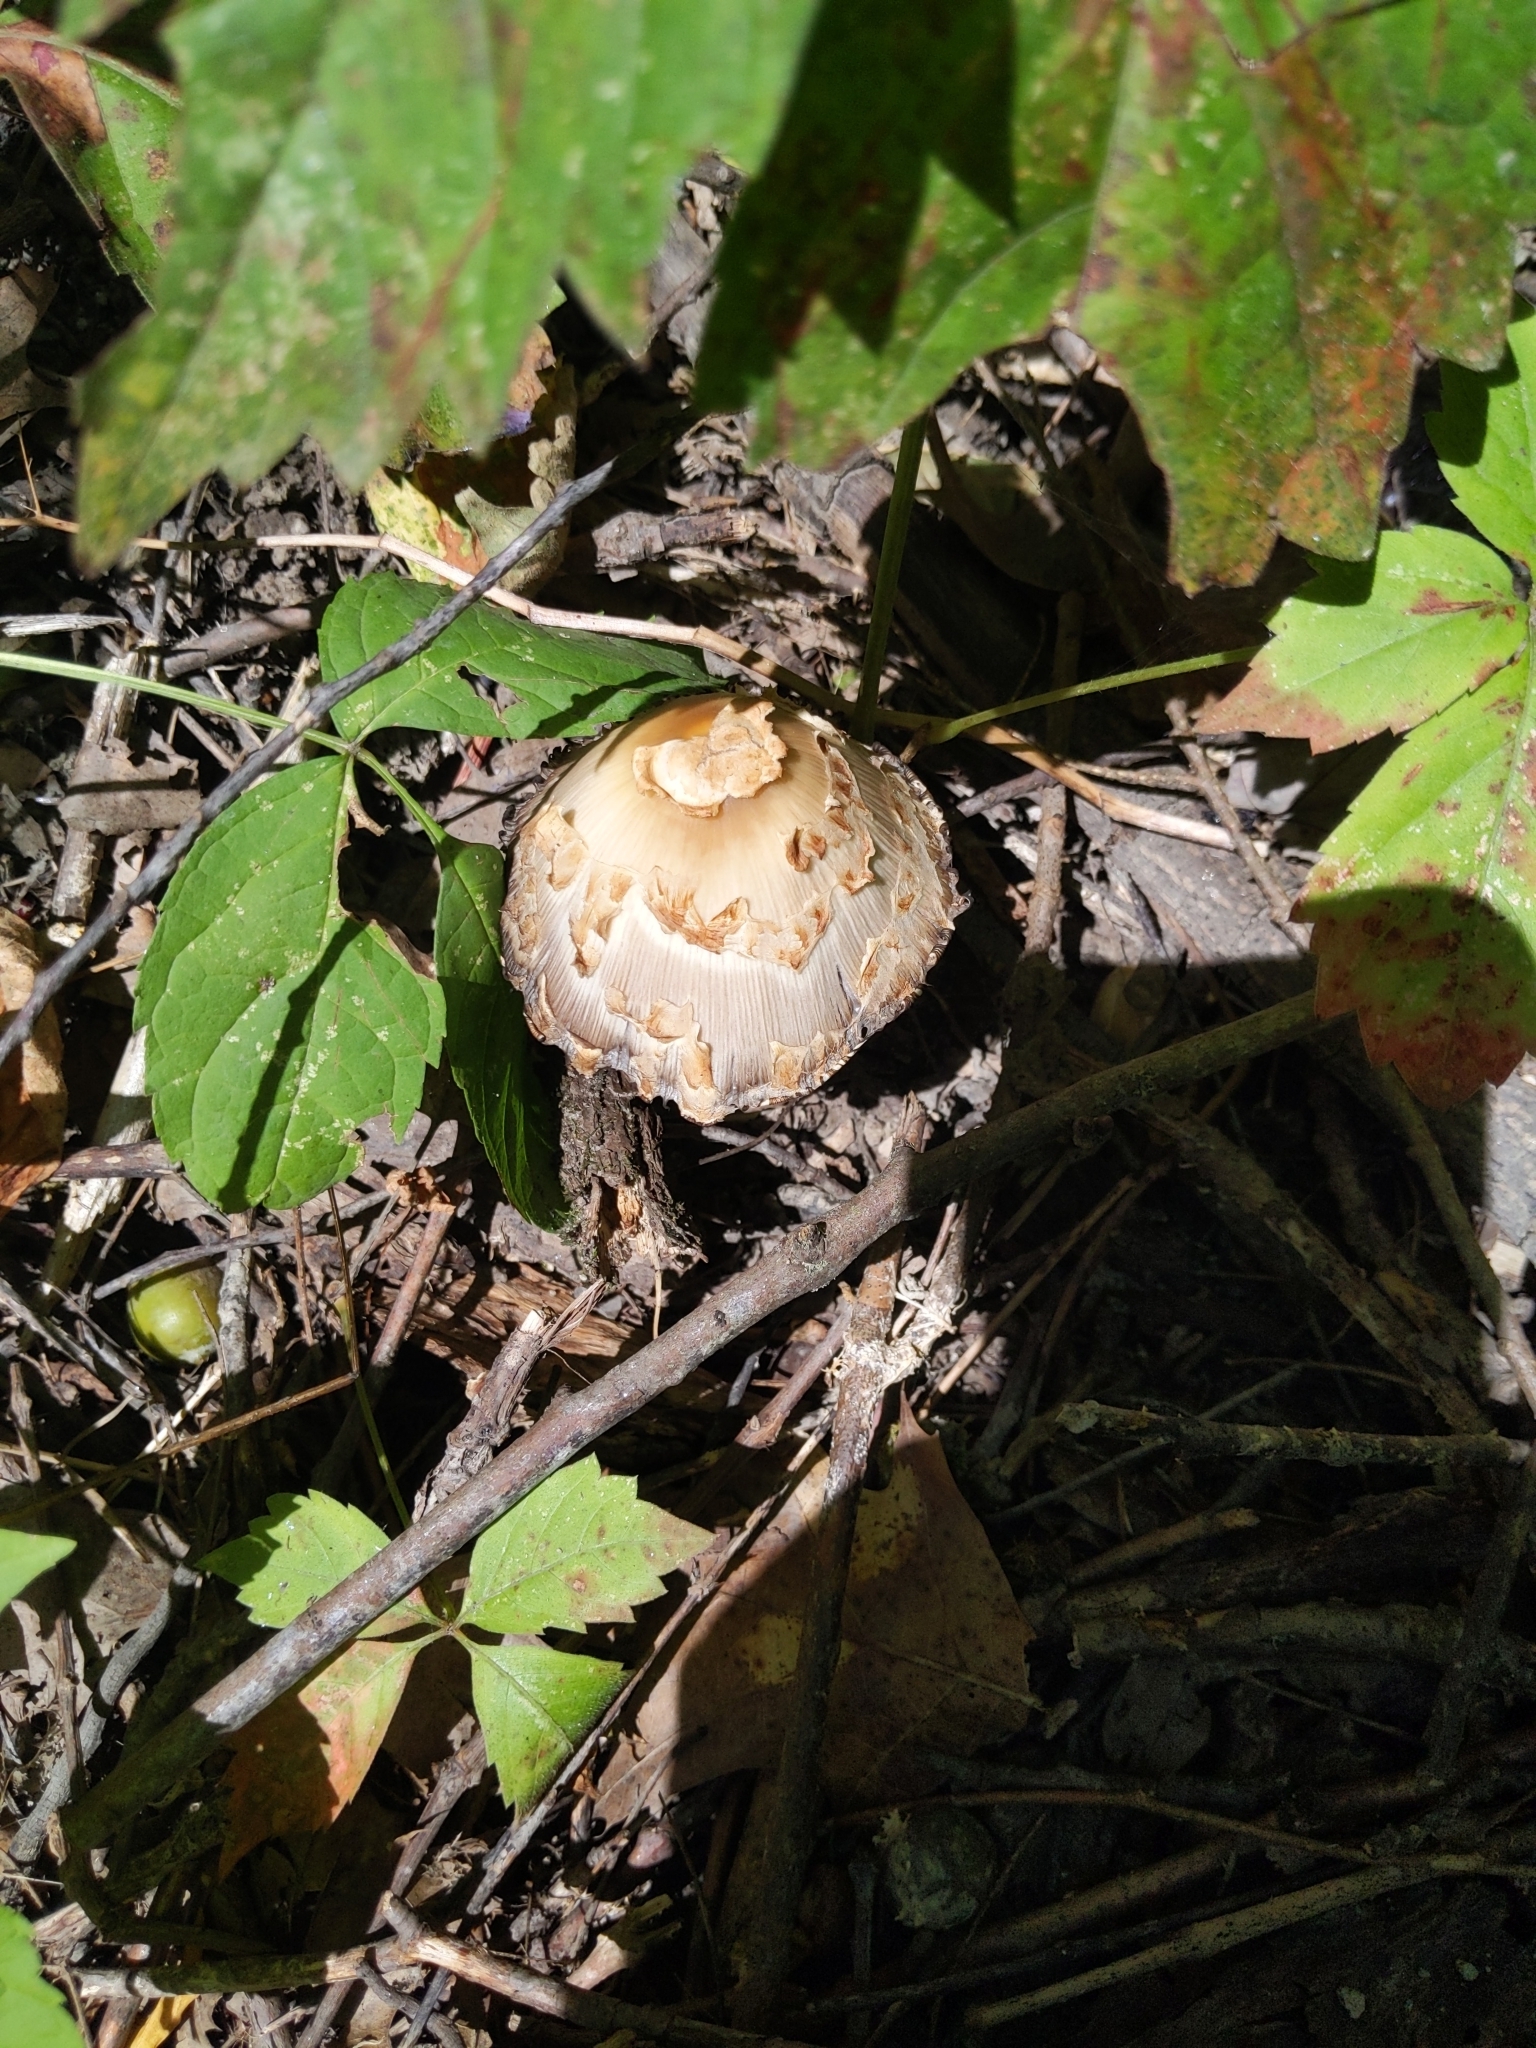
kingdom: Fungi
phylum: Basidiomycota
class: Agaricomycetes
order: Agaricales
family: Psathyrellaceae
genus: Coprinopsis
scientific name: Coprinopsis variegata
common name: Scaly ink cap
